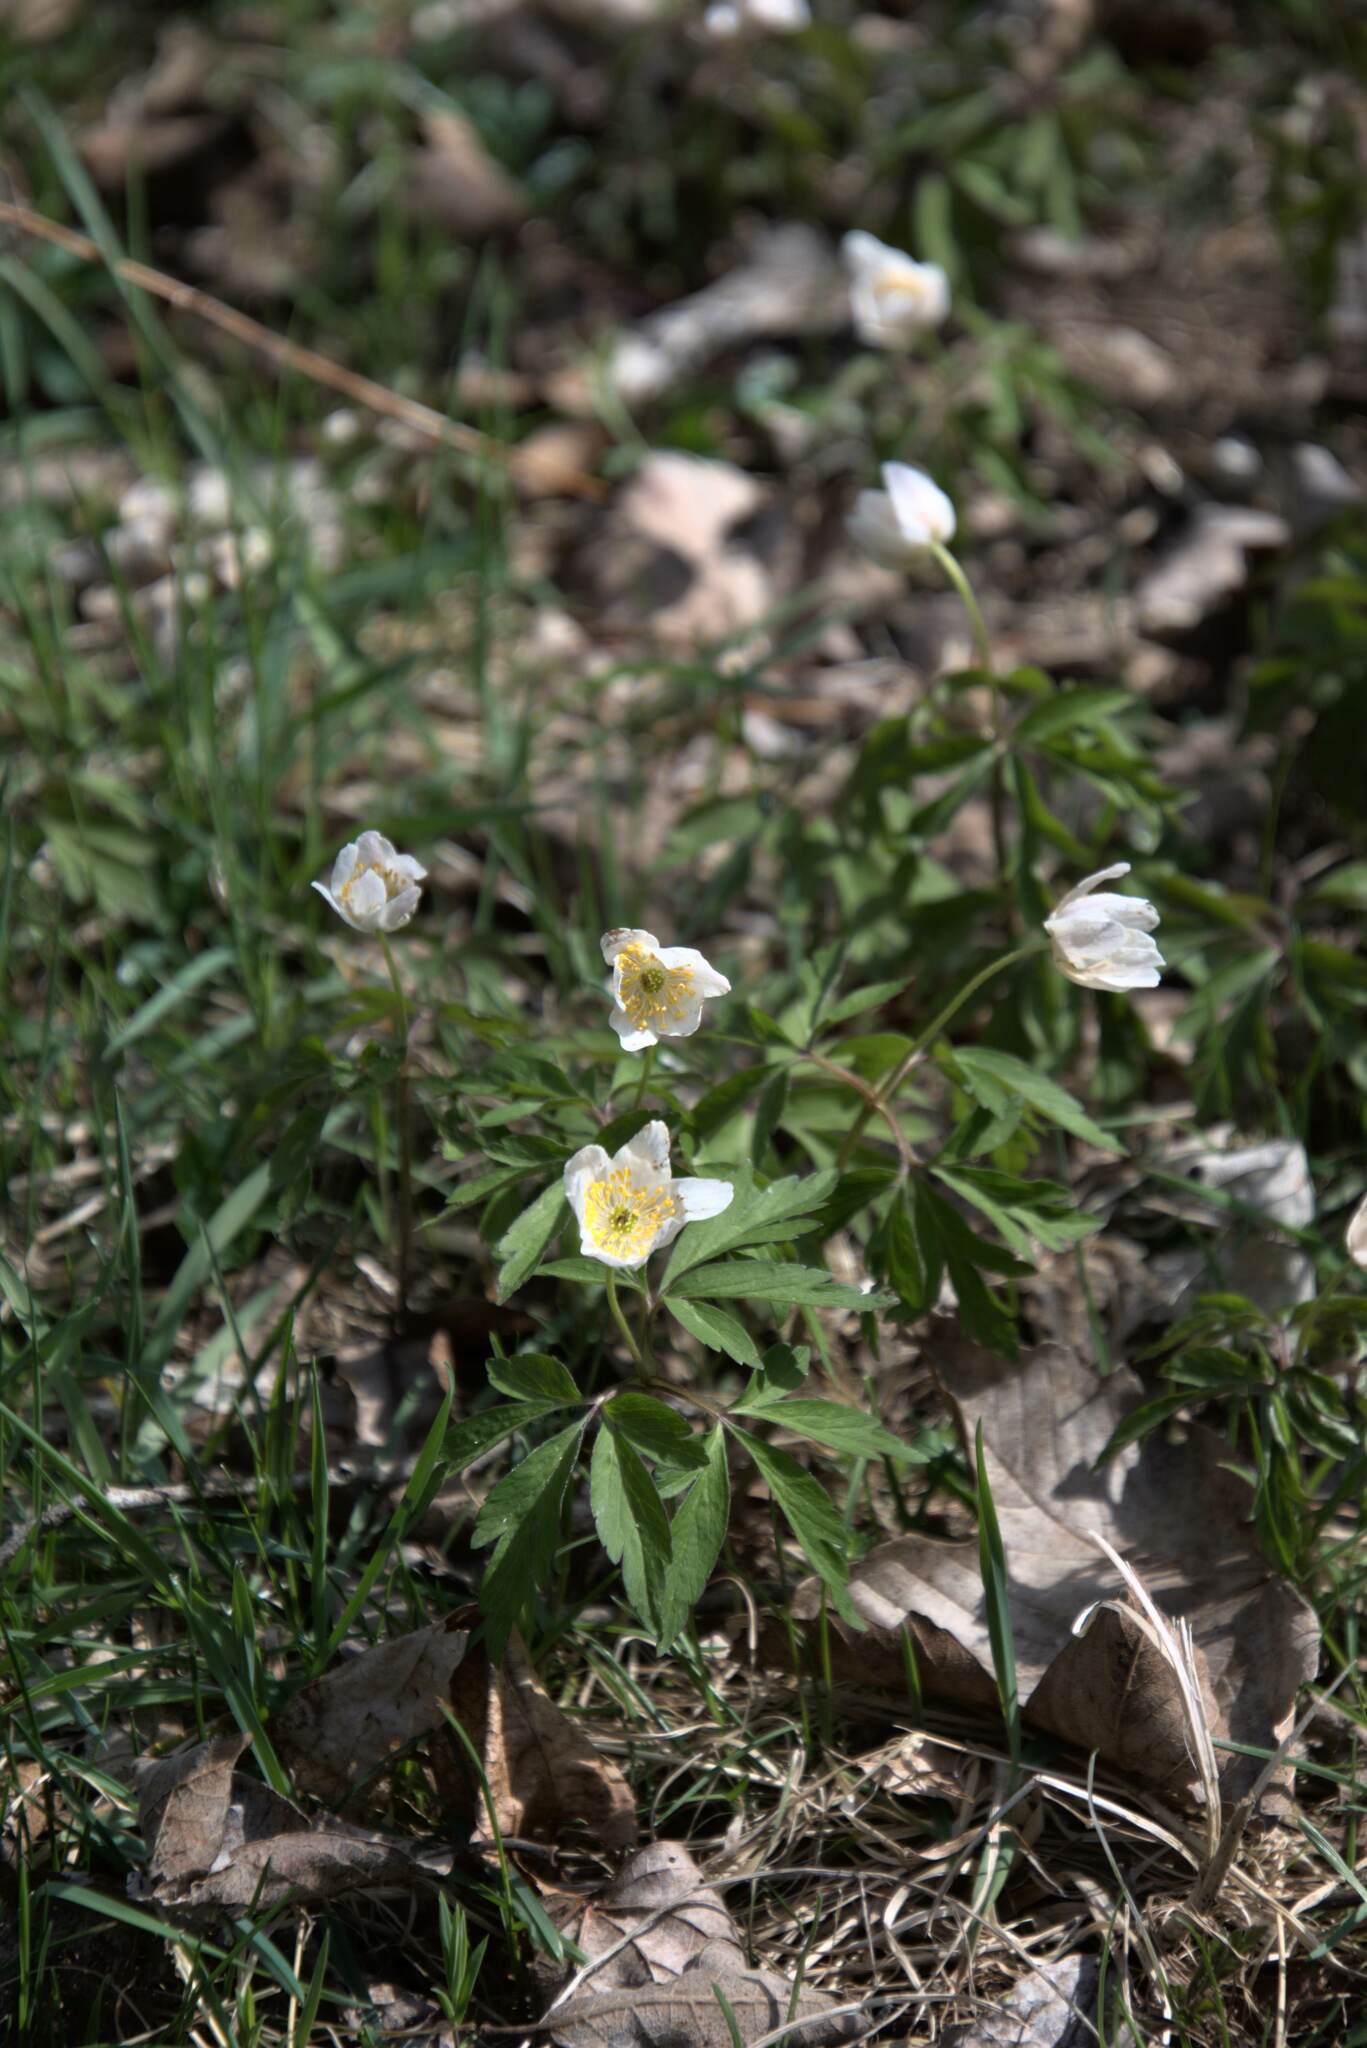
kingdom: Plantae
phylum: Tracheophyta
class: Magnoliopsida
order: Ranunculales
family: Ranunculaceae
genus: Anemone
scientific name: Anemone nemorosa
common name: Wood anemone
